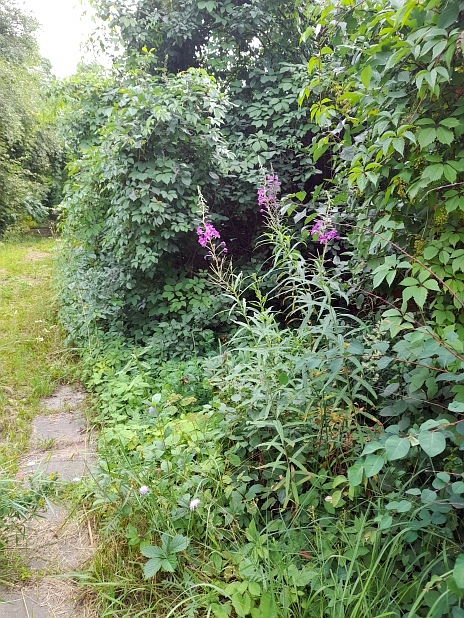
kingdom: Plantae
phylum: Tracheophyta
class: Magnoliopsida
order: Myrtales
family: Onagraceae
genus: Chamaenerion
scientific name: Chamaenerion angustifolium
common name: Fireweed
